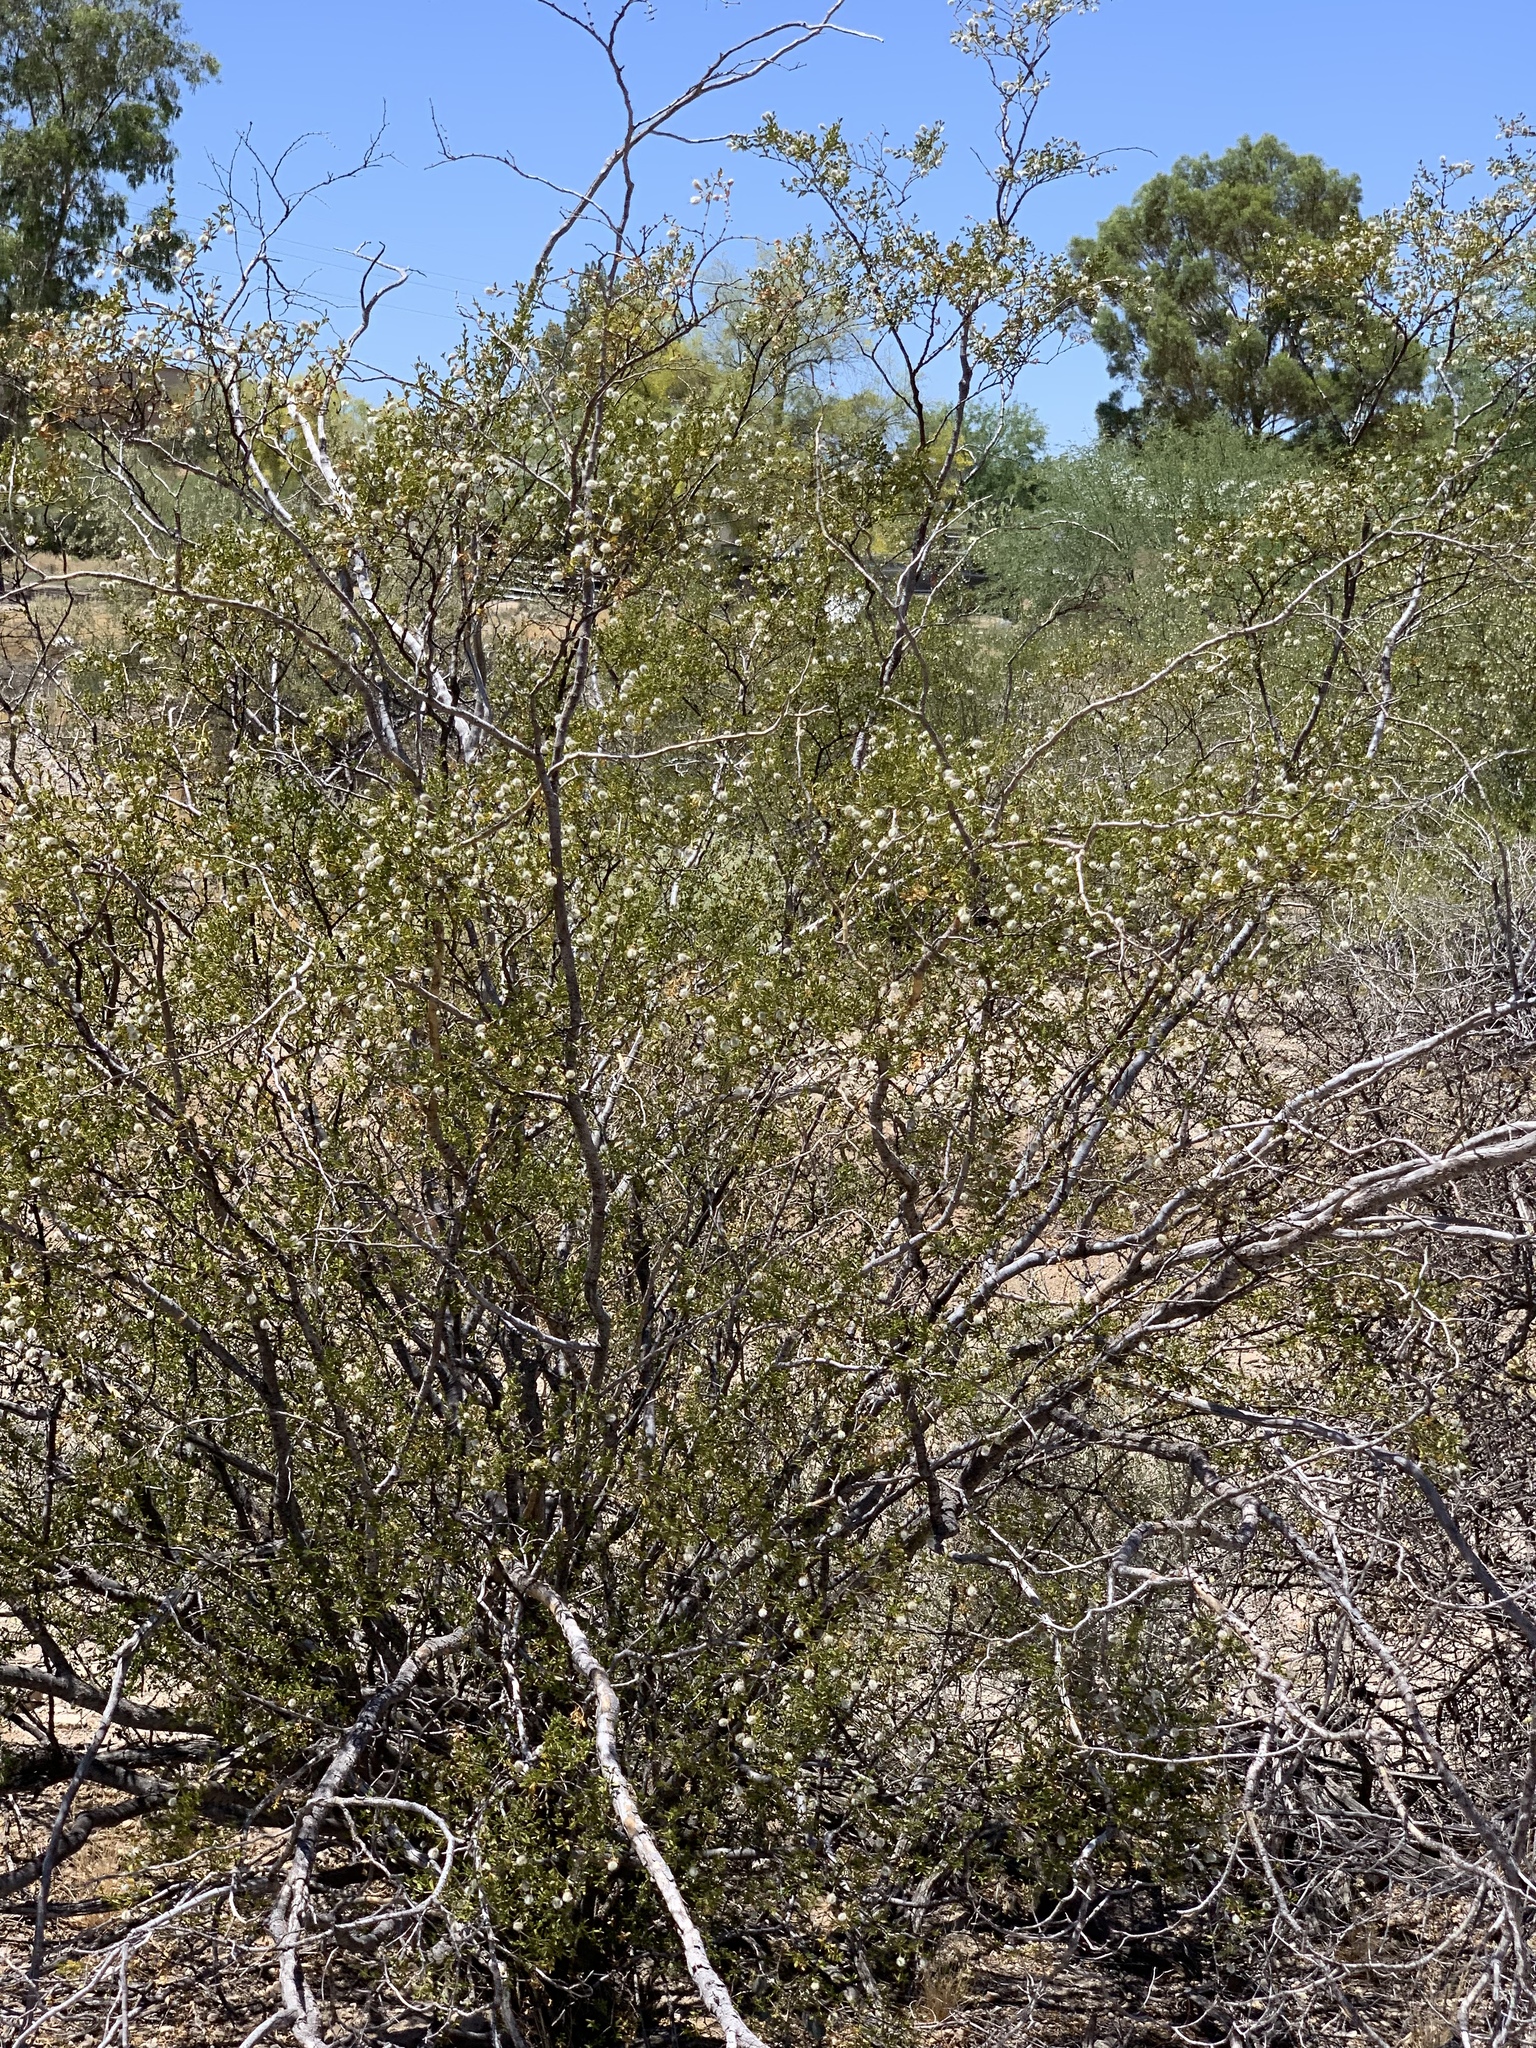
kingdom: Plantae
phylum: Tracheophyta
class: Magnoliopsida
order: Zygophyllales
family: Zygophyllaceae
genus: Larrea
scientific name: Larrea tridentata
